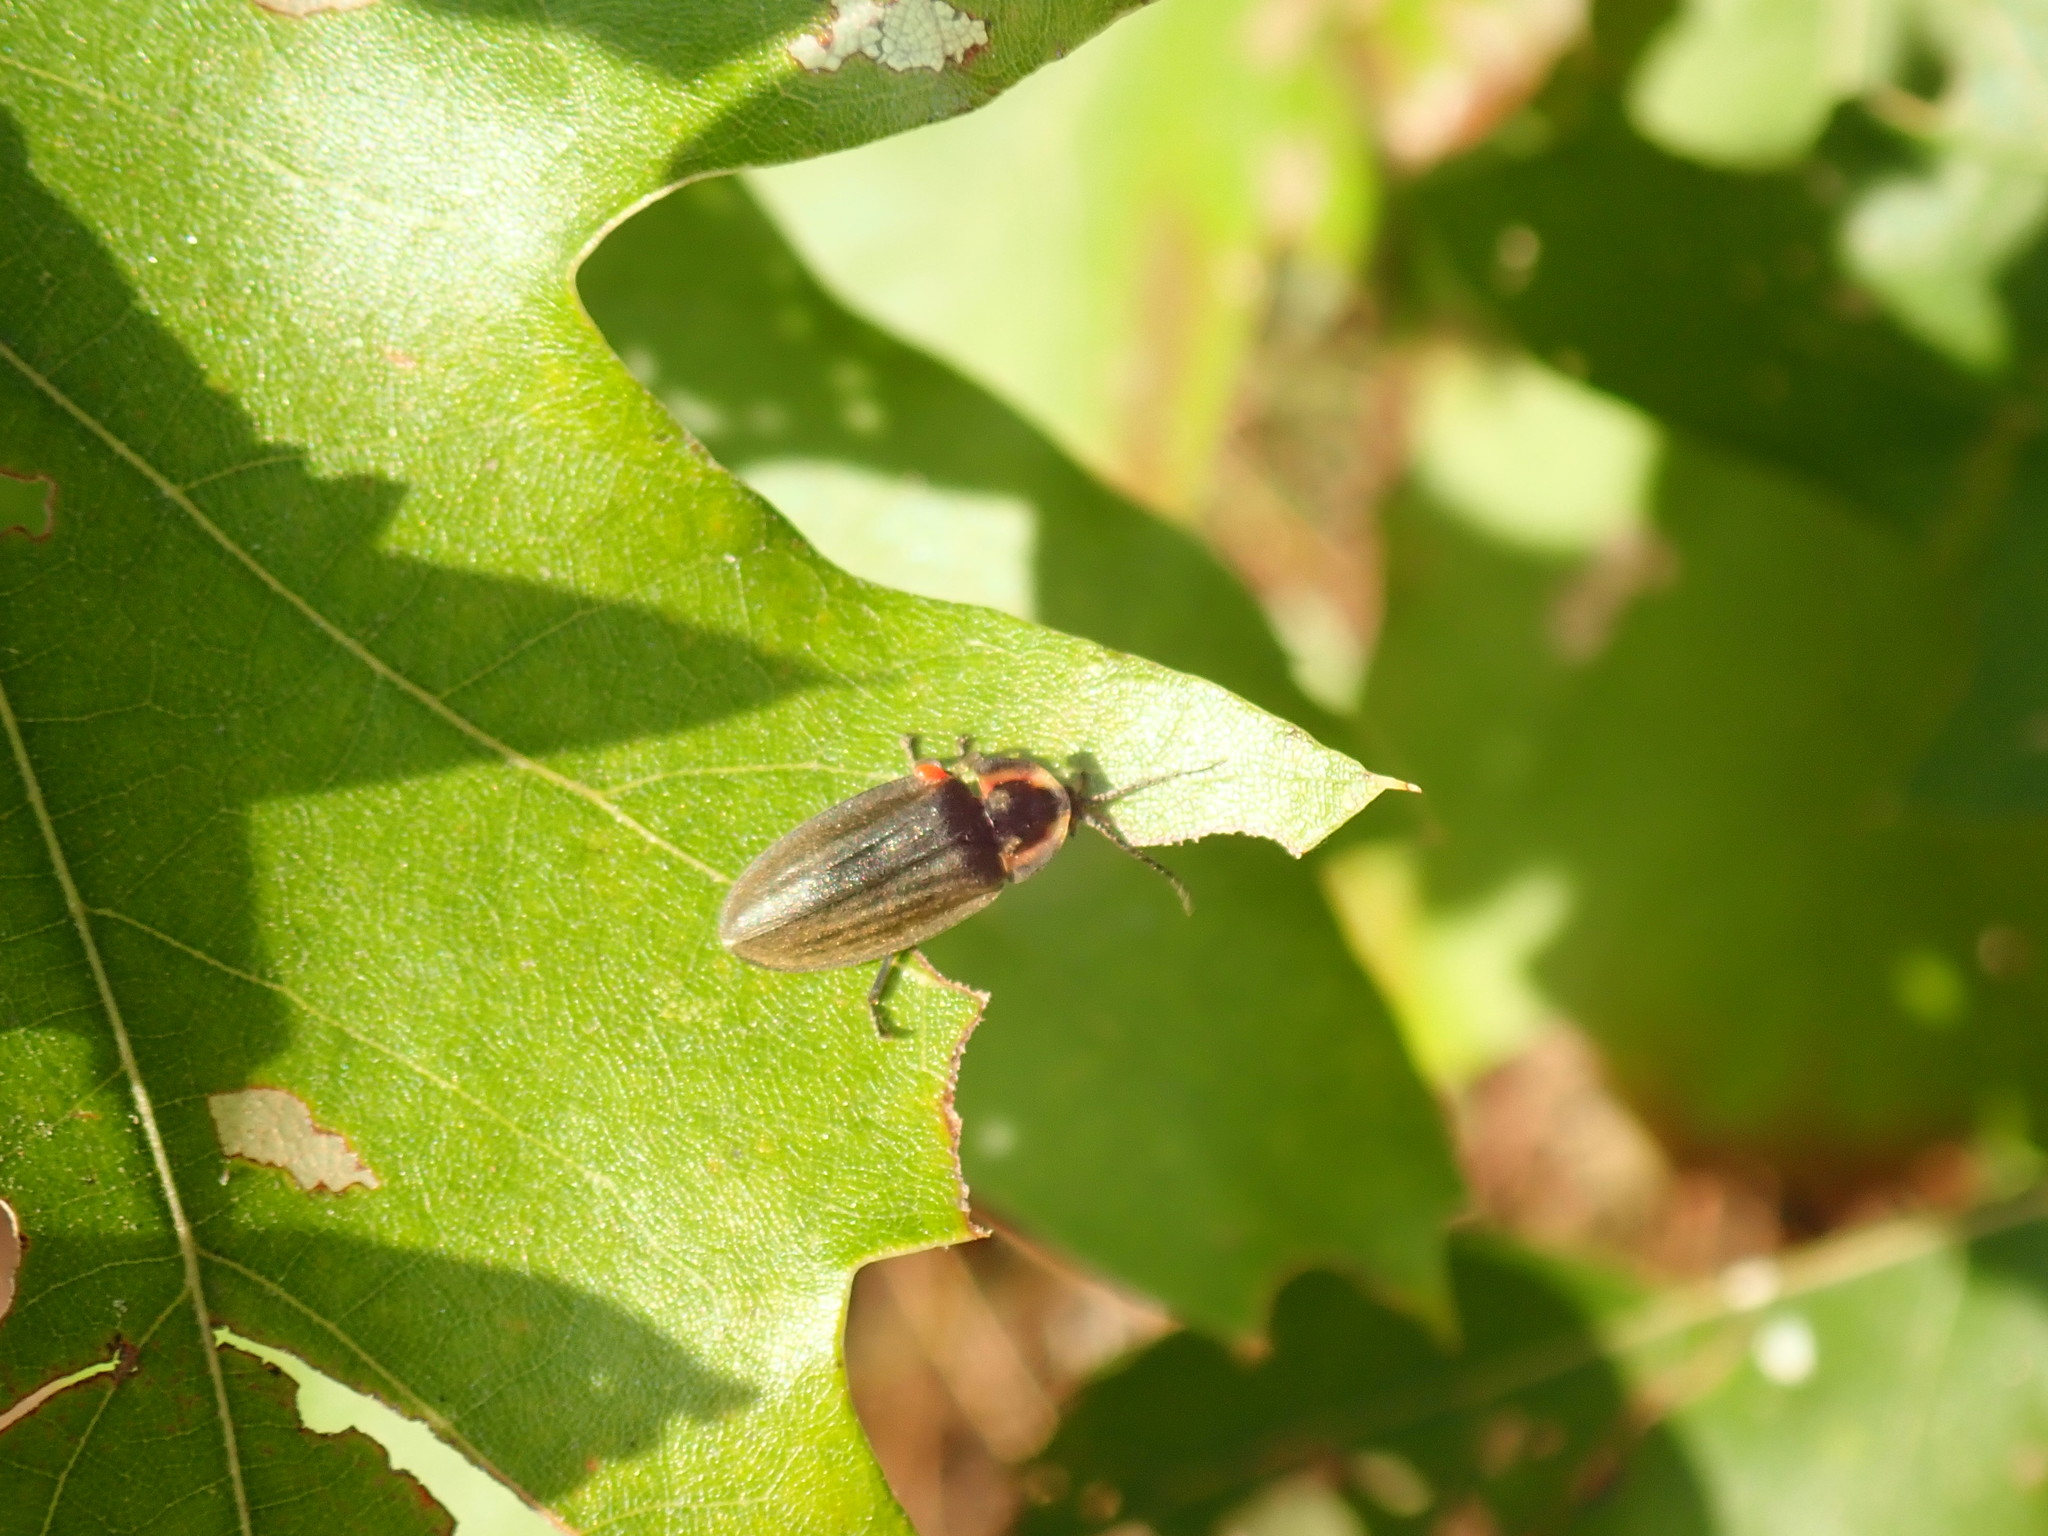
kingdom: Animalia
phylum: Arthropoda
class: Insecta
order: Coleoptera
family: Lampyridae
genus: Photinus
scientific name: Photinus corrusca
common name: Winter firefly
